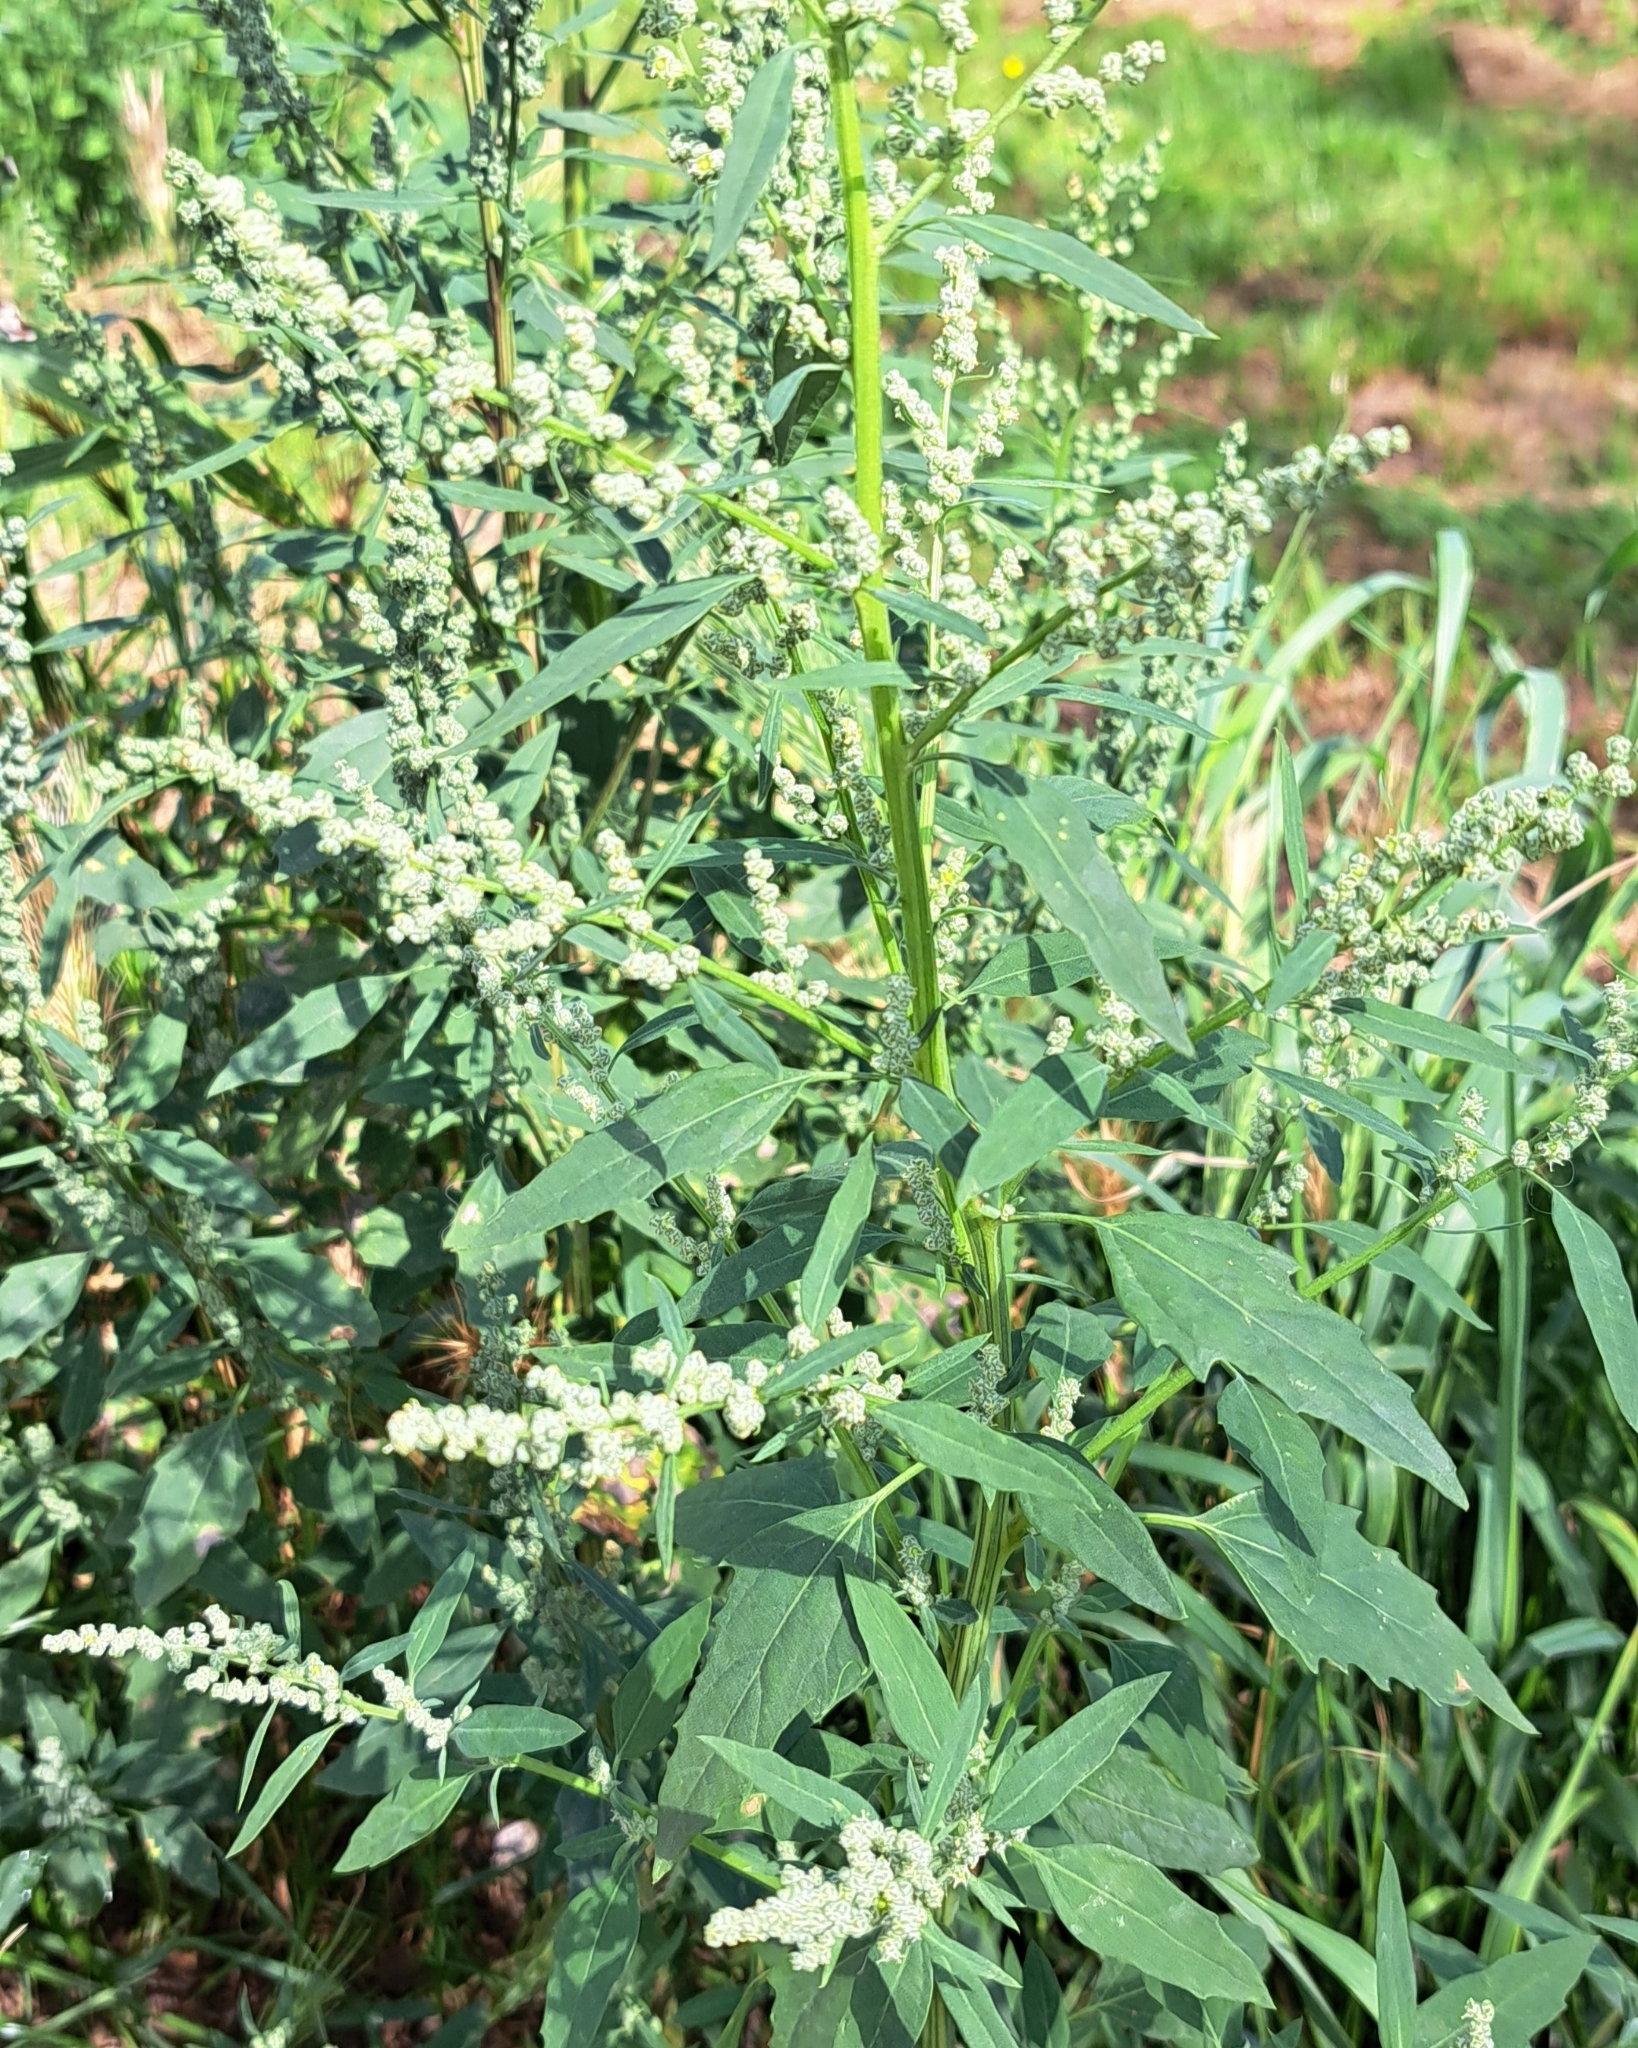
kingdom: Plantae
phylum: Tracheophyta
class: Magnoliopsida
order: Caryophyllales
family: Amaranthaceae
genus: Chenopodium
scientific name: Chenopodium album
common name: Fat-hen
